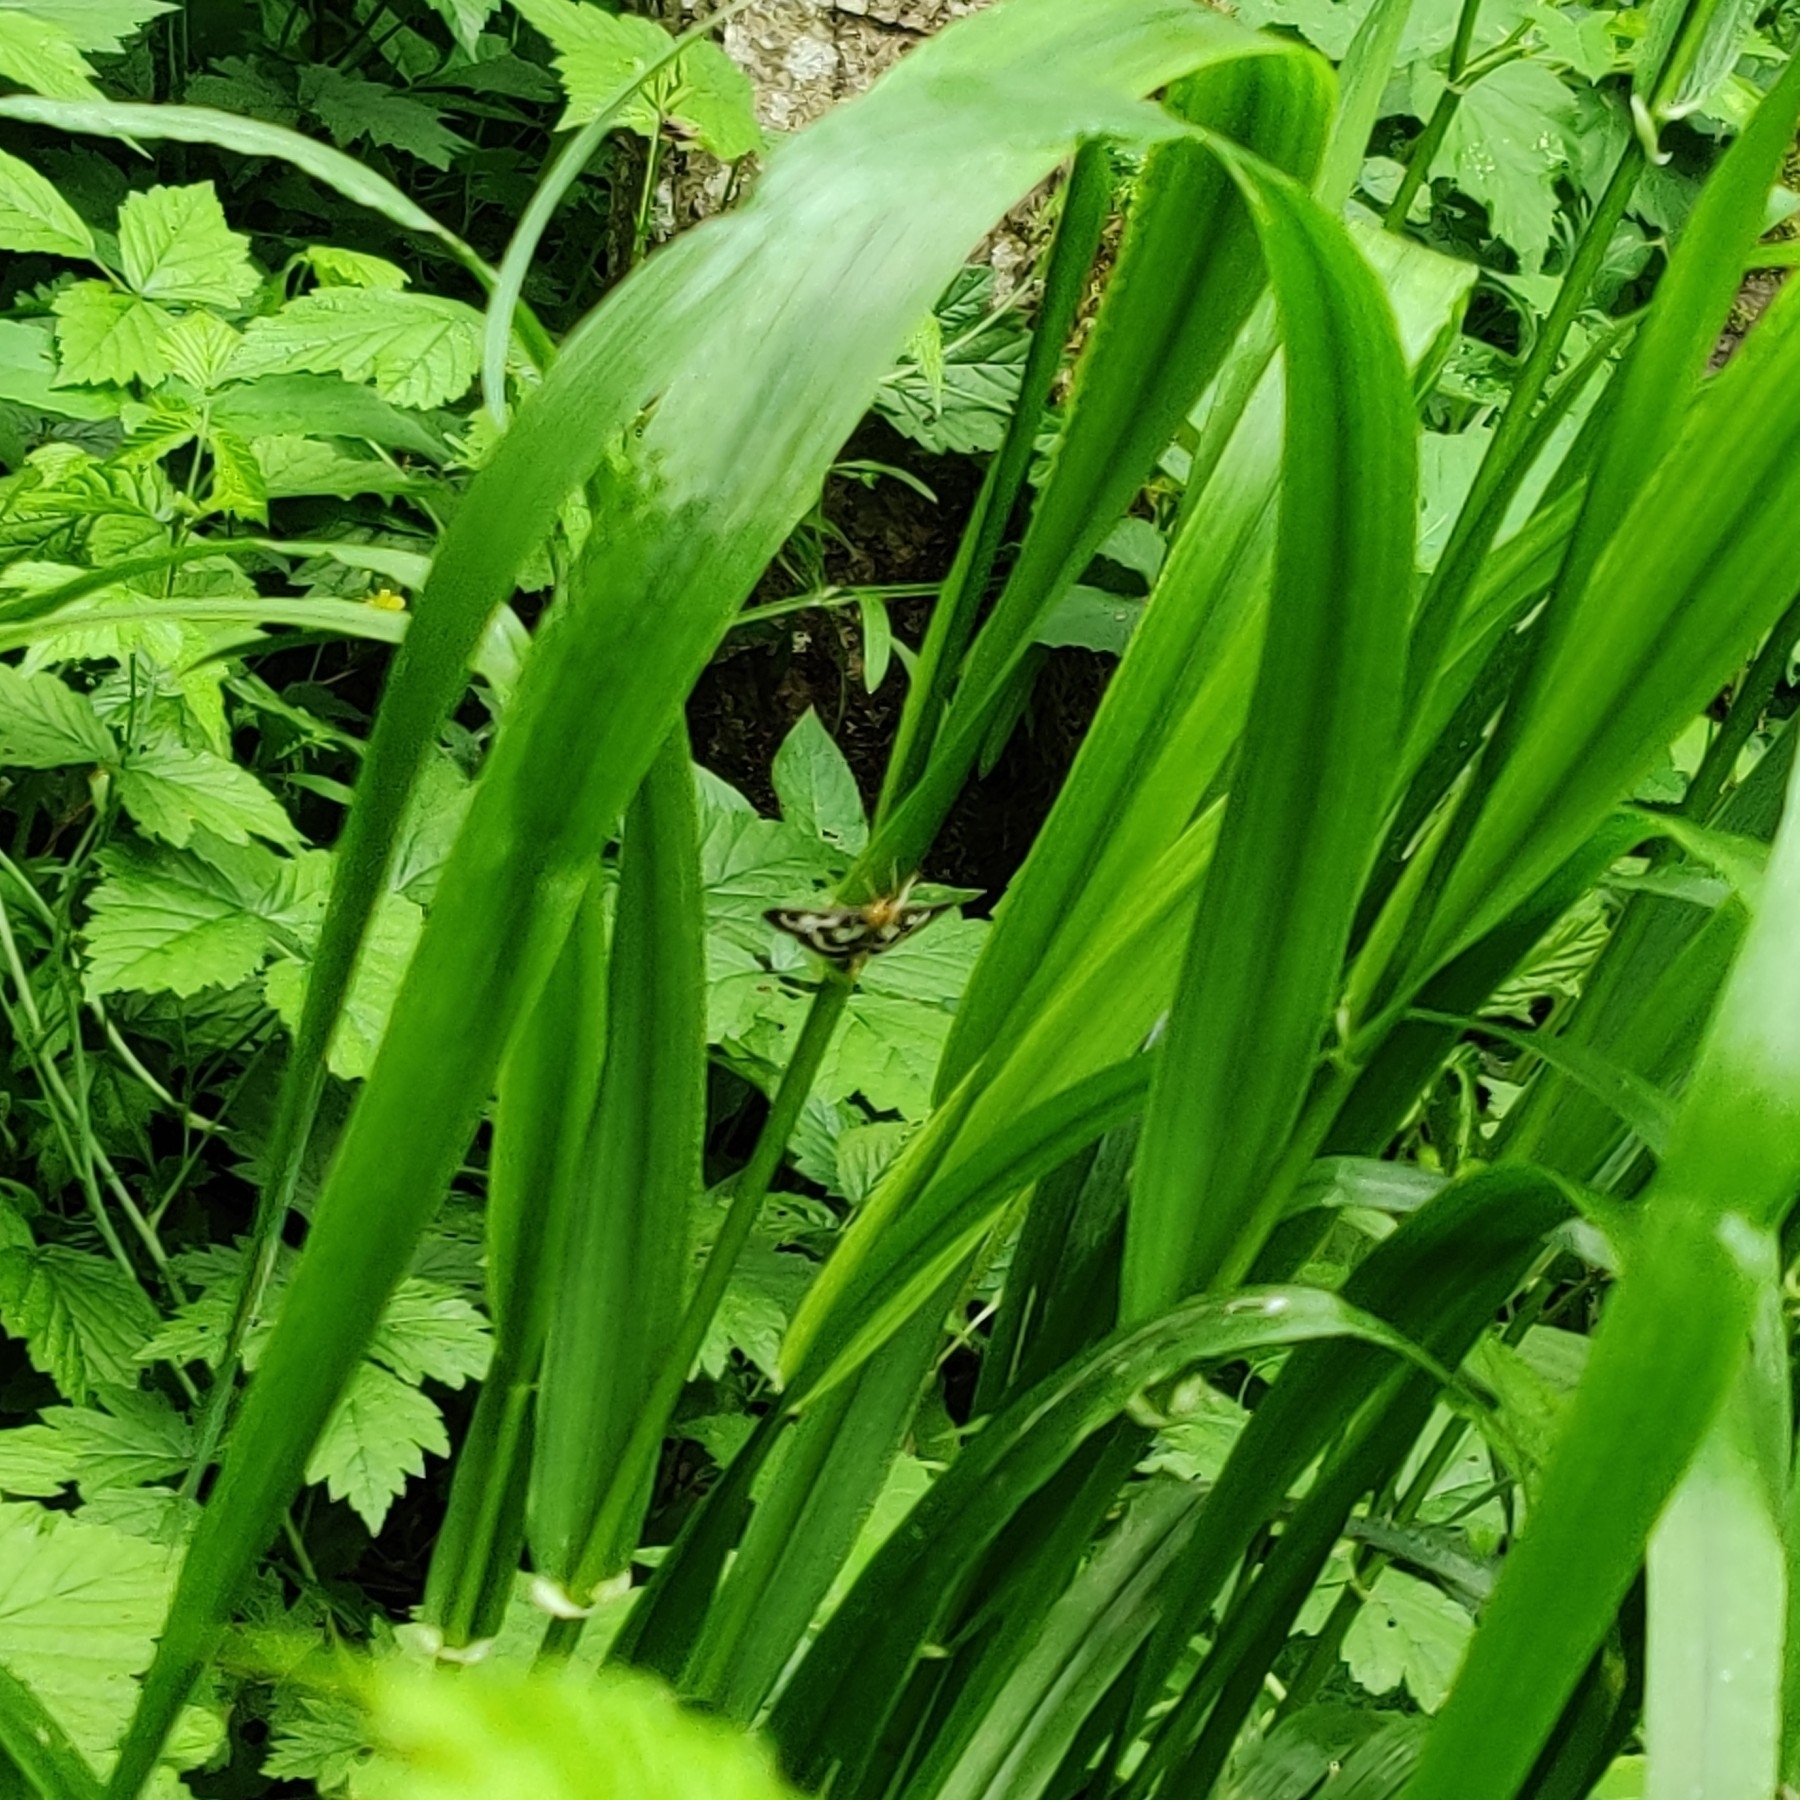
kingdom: Animalia
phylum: Arthropoda
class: Insecta
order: Lepidoptera
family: Crambidae
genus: Anania
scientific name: Anania hortulata
